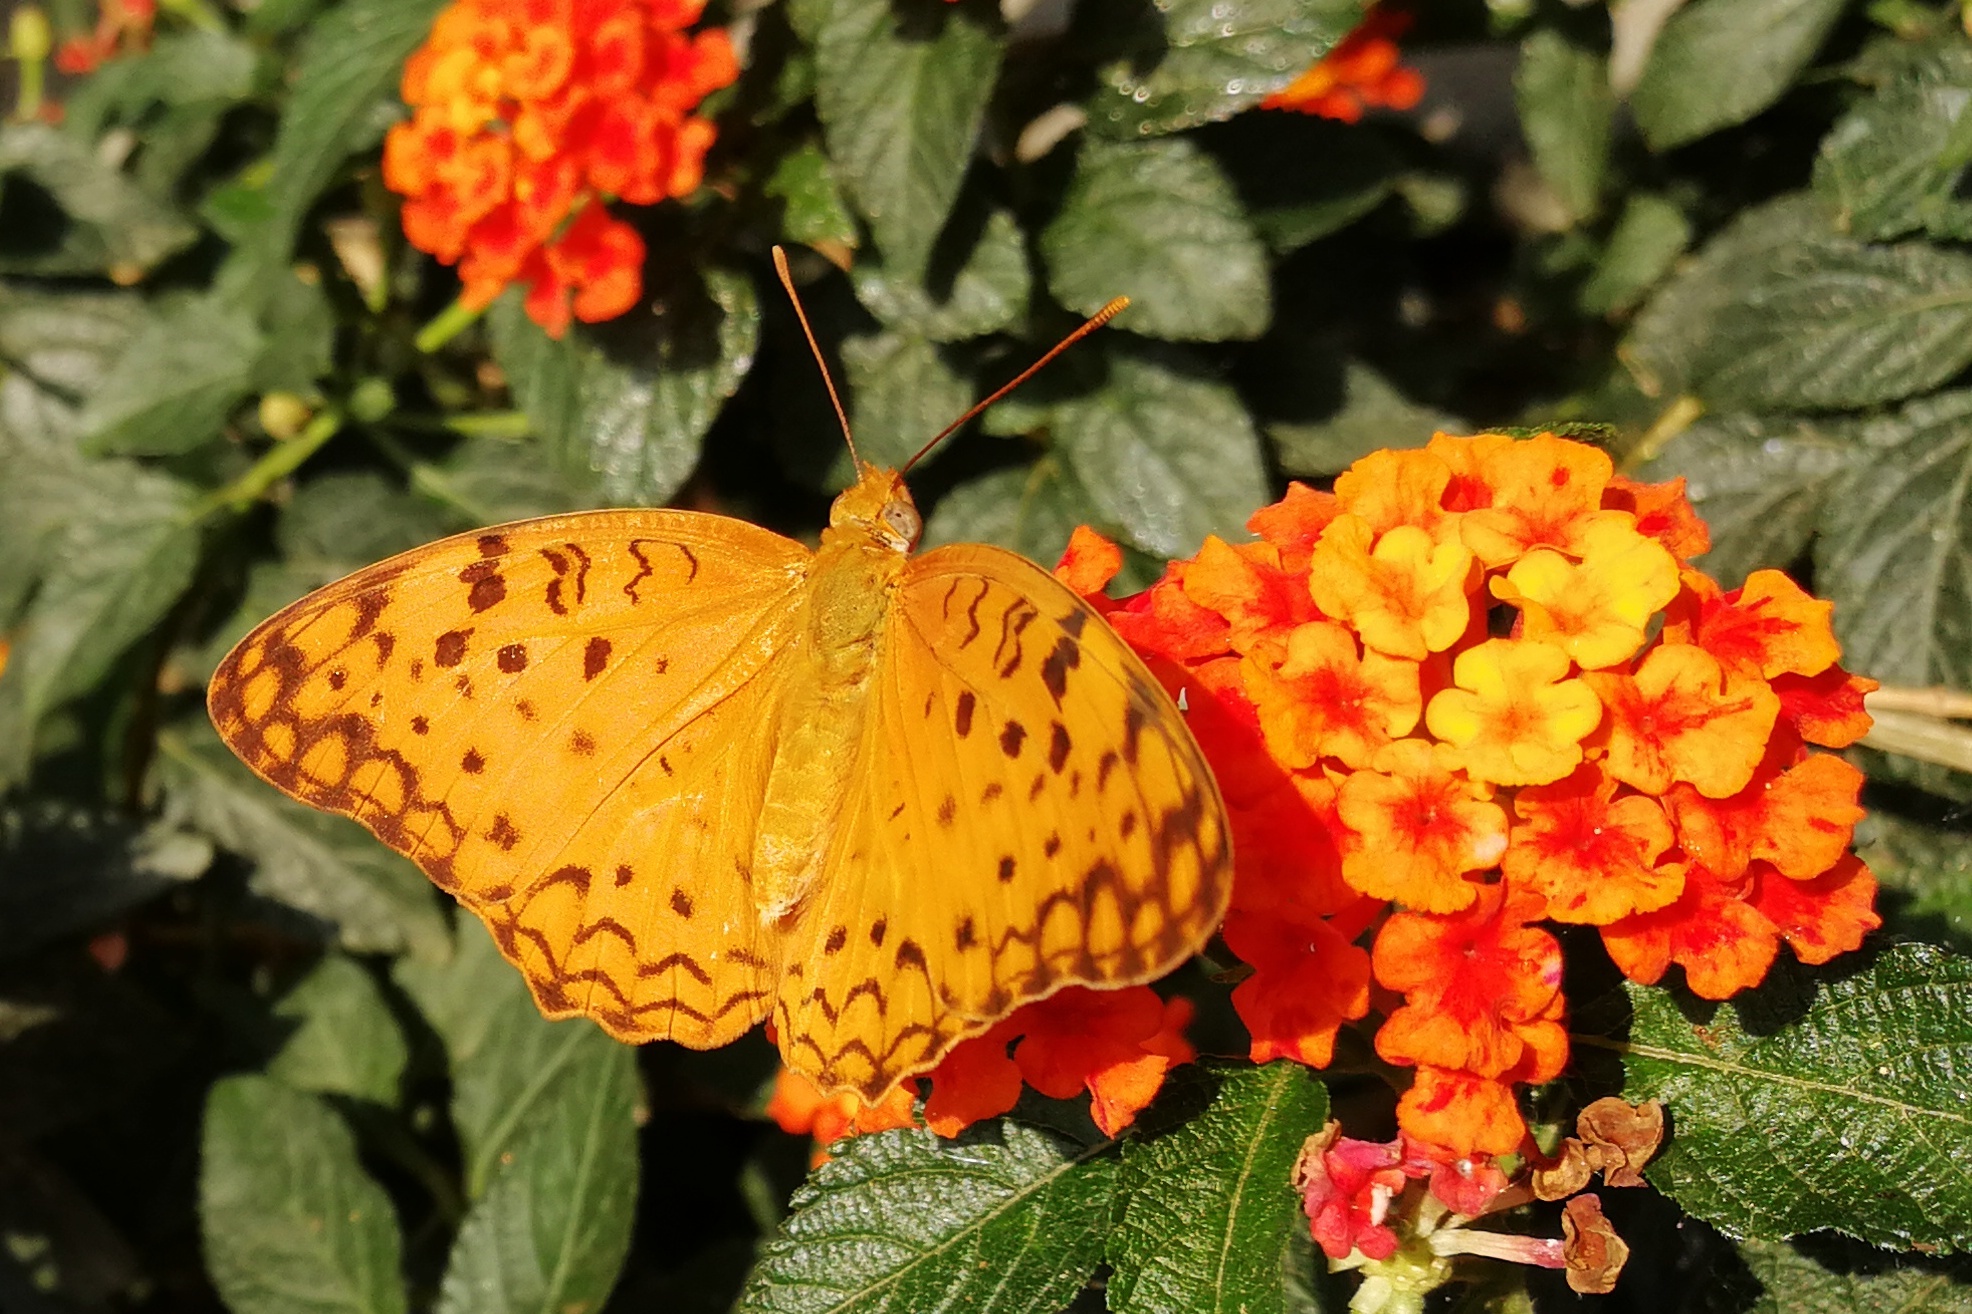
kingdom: Animalia
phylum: Arthropoda
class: Insecta
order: Lepidoptera
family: Nymphalidae
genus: Phalanta
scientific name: Phalanta phalantha
